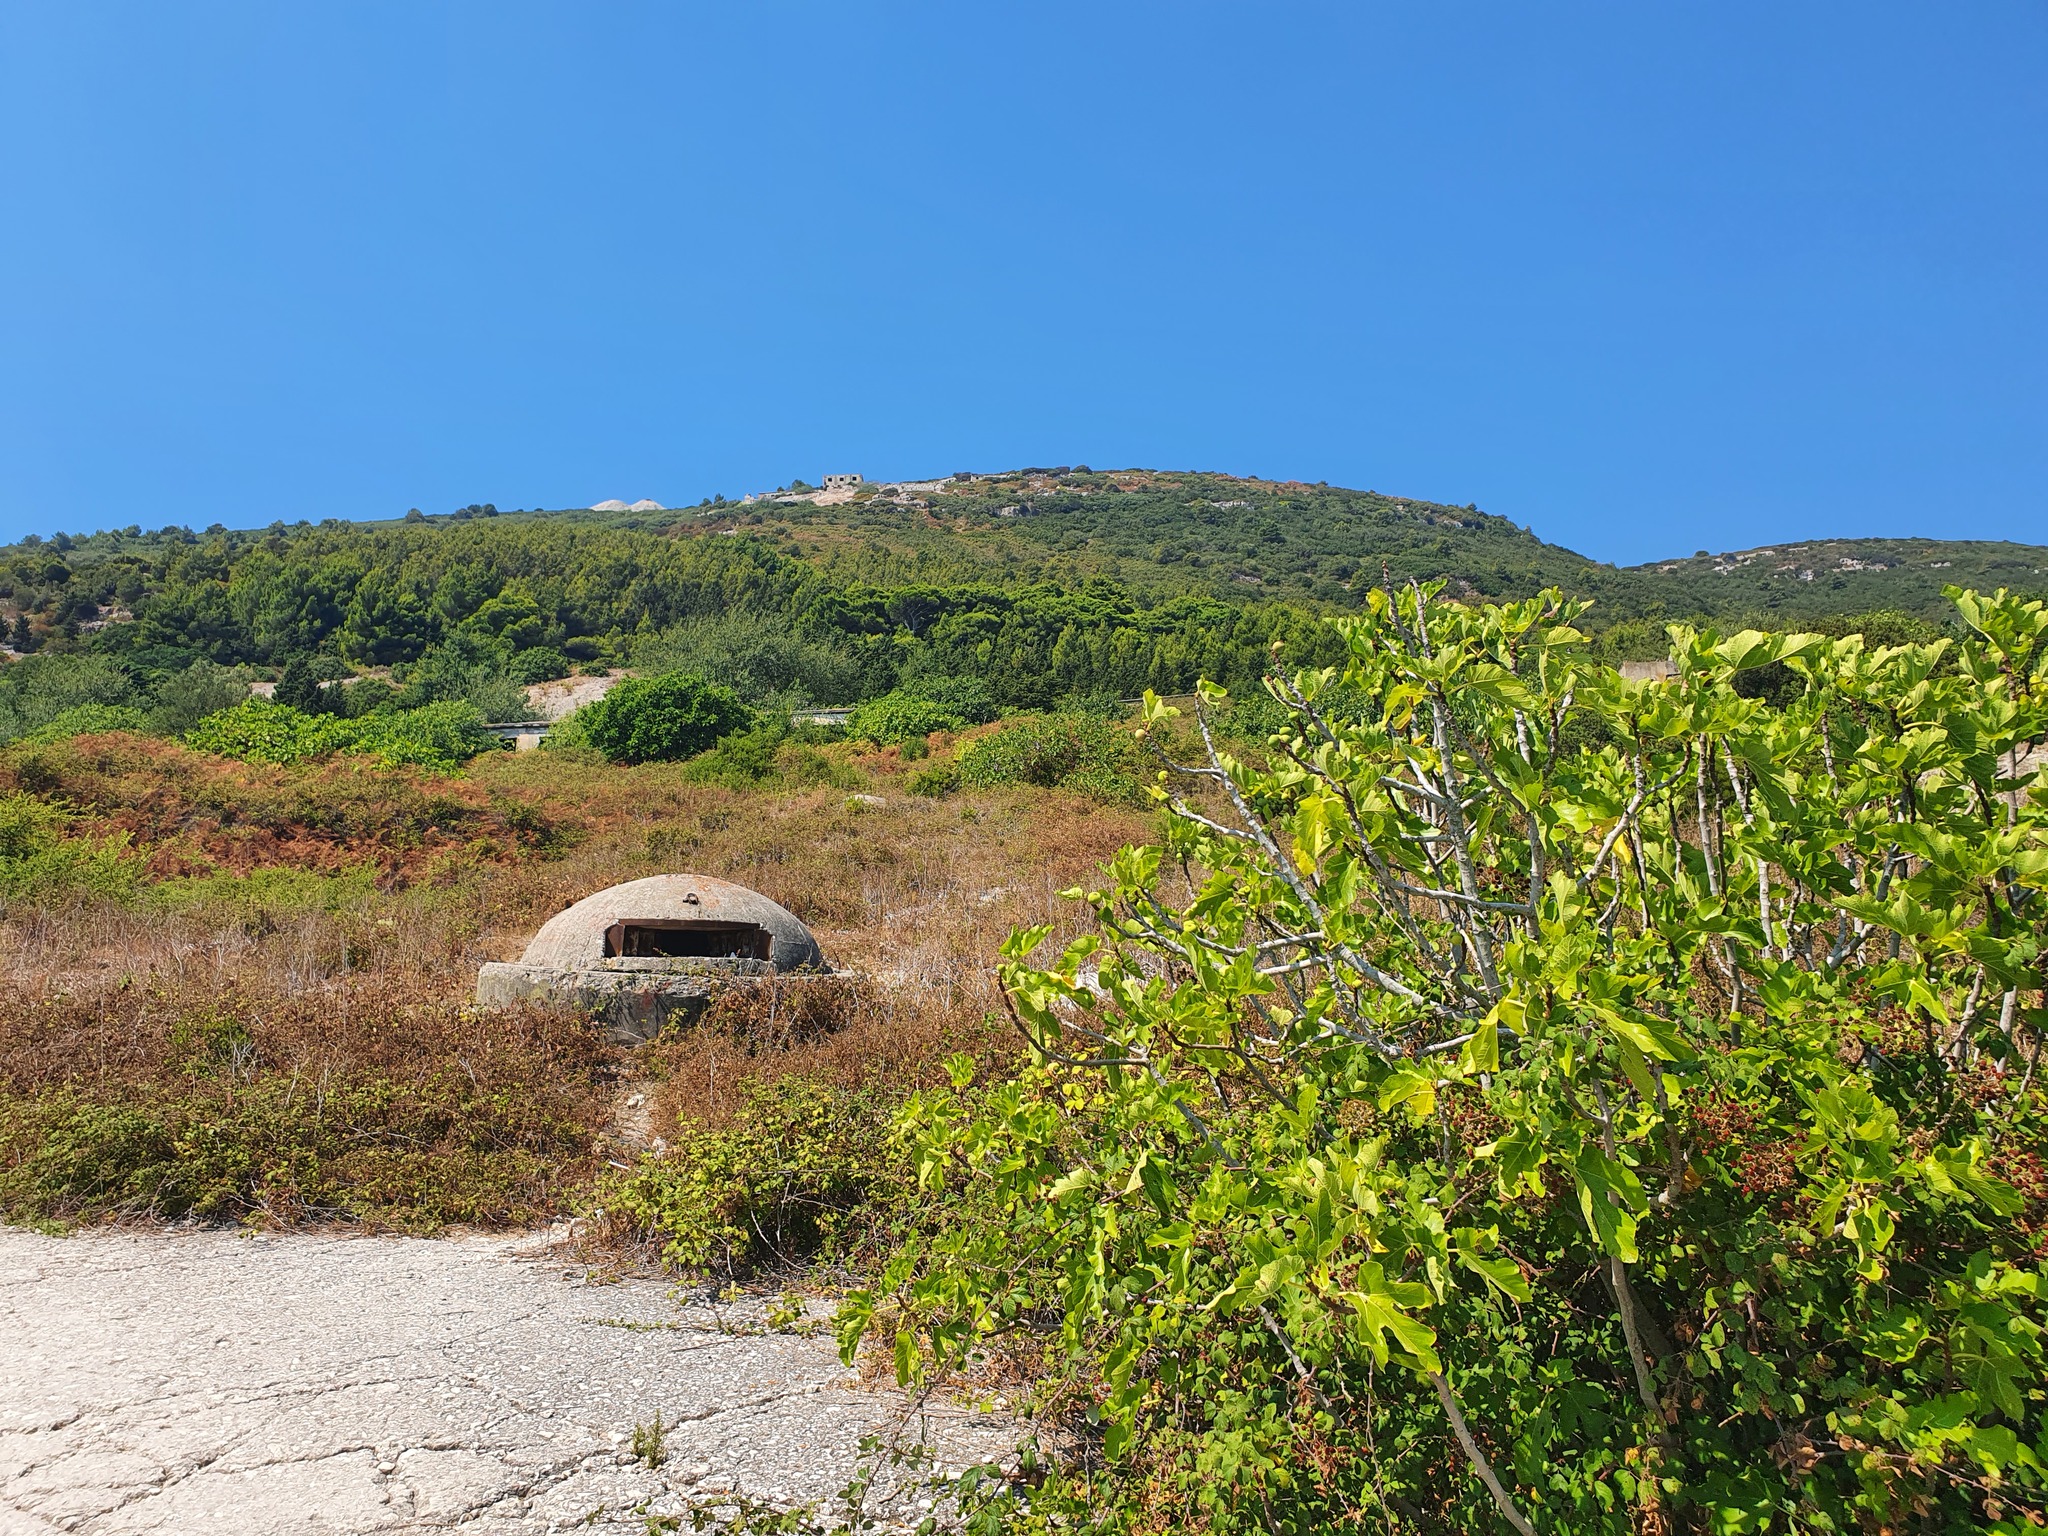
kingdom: Plantae
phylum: Tracheophyta
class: Magnoliopsida
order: Rosales
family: Moraceae
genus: Ficus
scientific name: Ficus carica
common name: Fig
